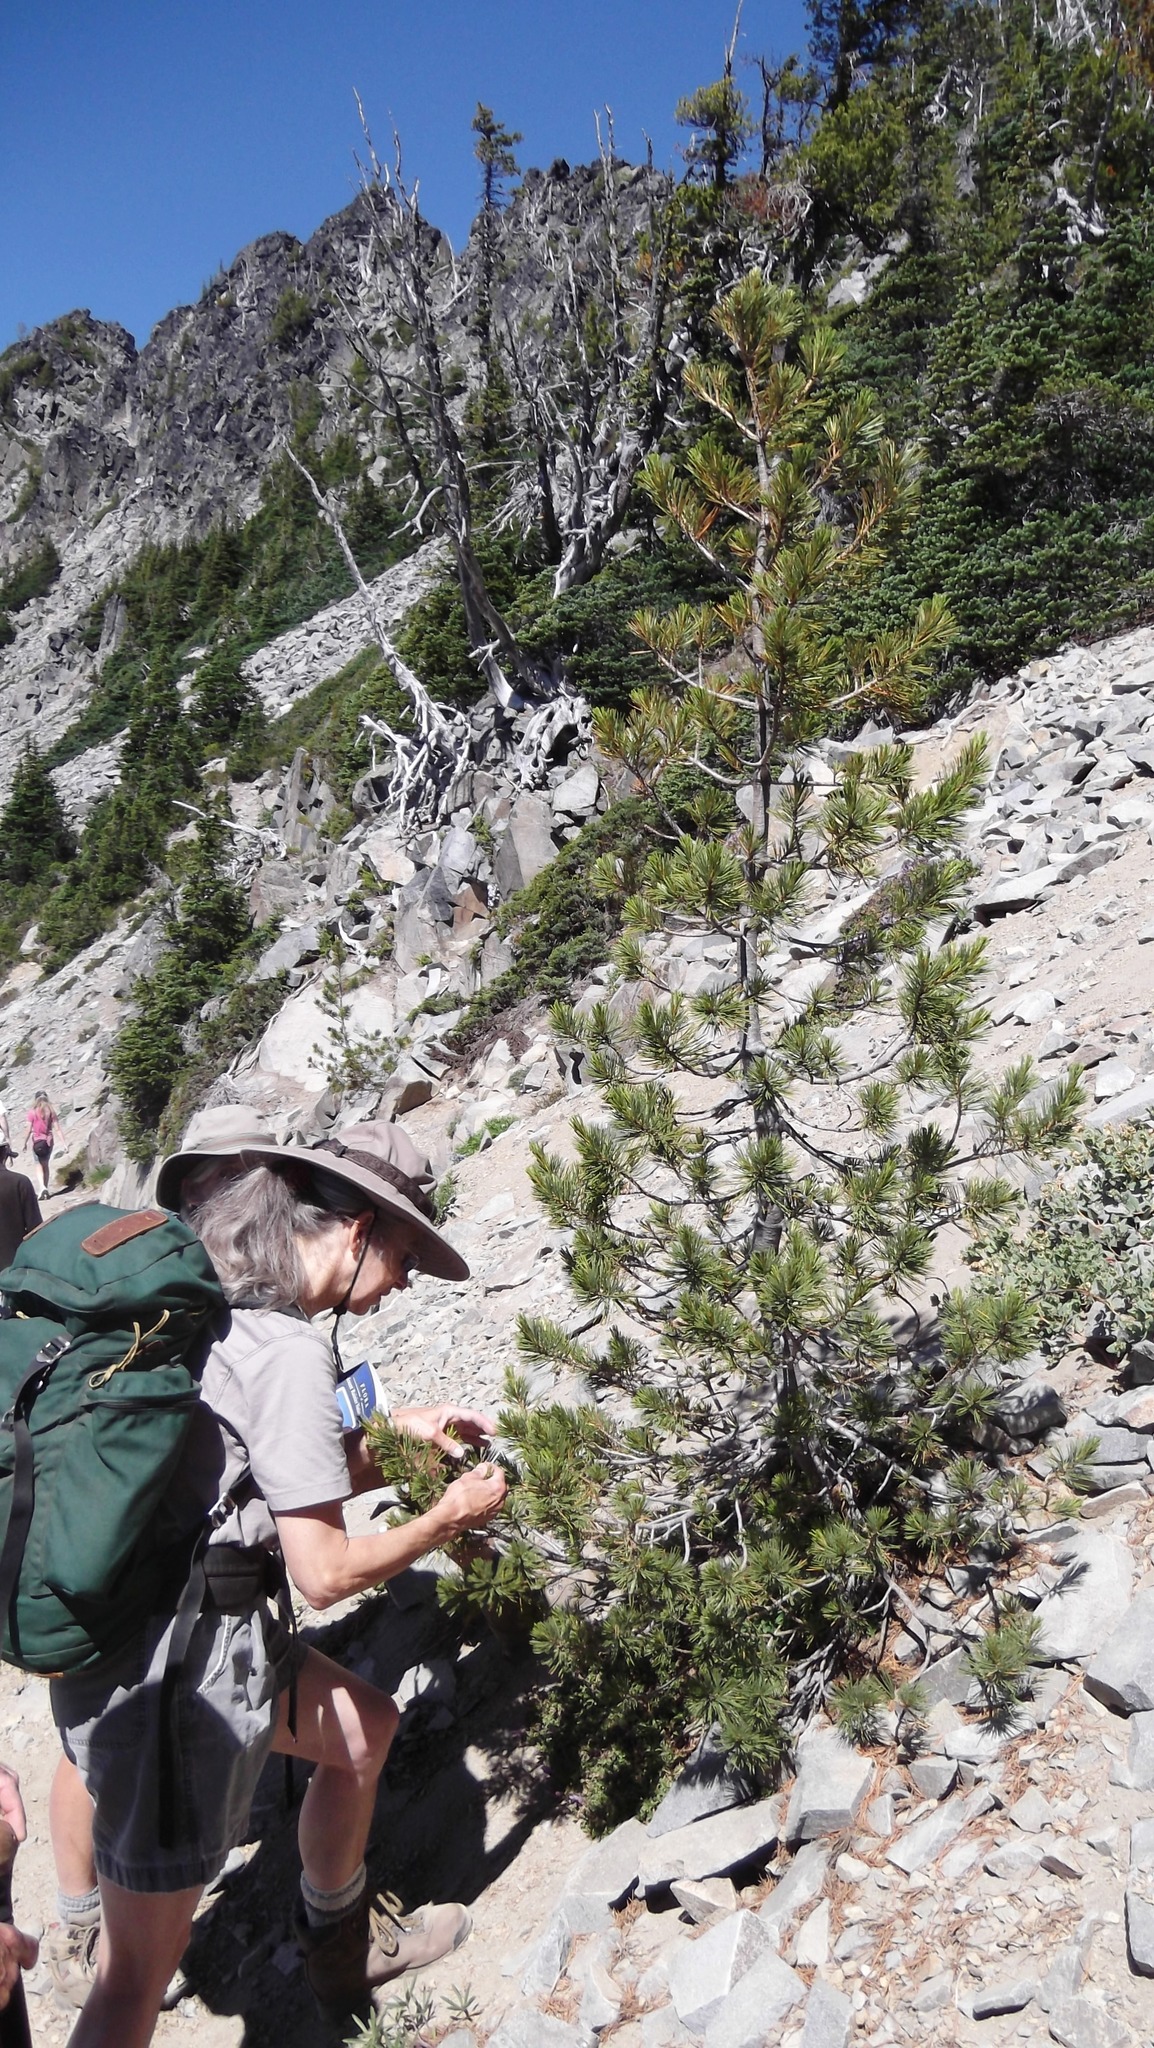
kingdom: Plantae
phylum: Tracheophyta
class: Pinopsida
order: Pinales
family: Pinaceae
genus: Pinus
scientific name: Pinus albicaulis
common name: Whitebark pine
